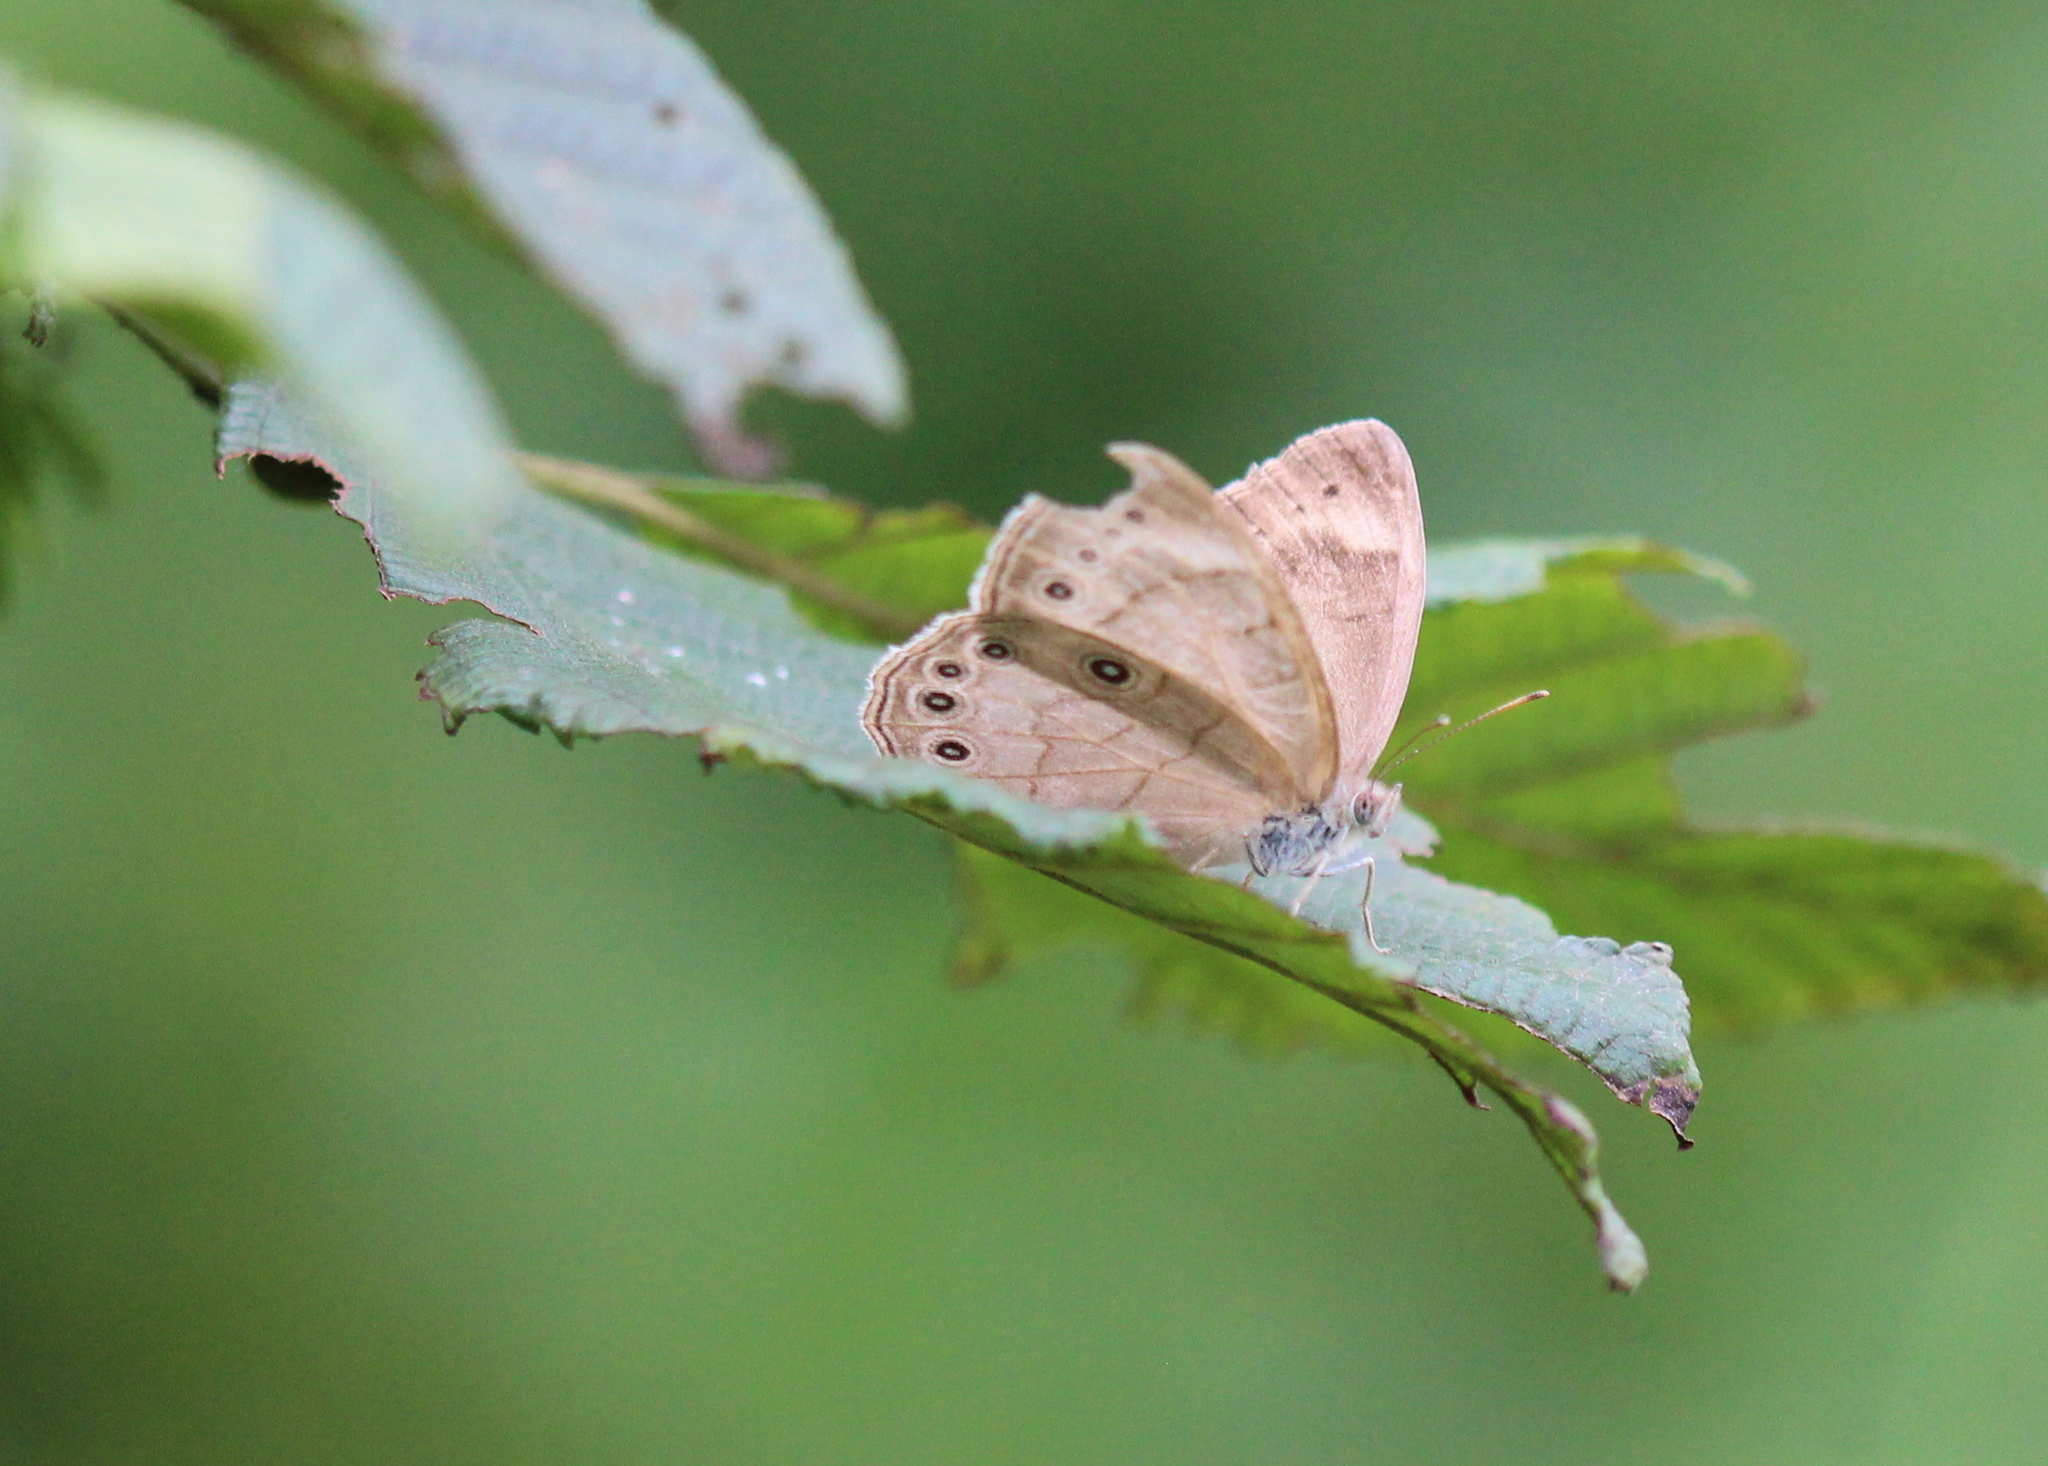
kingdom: Animalia
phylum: Arthropoda
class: Insecta
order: Lepidoptera
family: Nymphalidae
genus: Lethe
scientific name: Lethe eurydice
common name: Eyed brown
